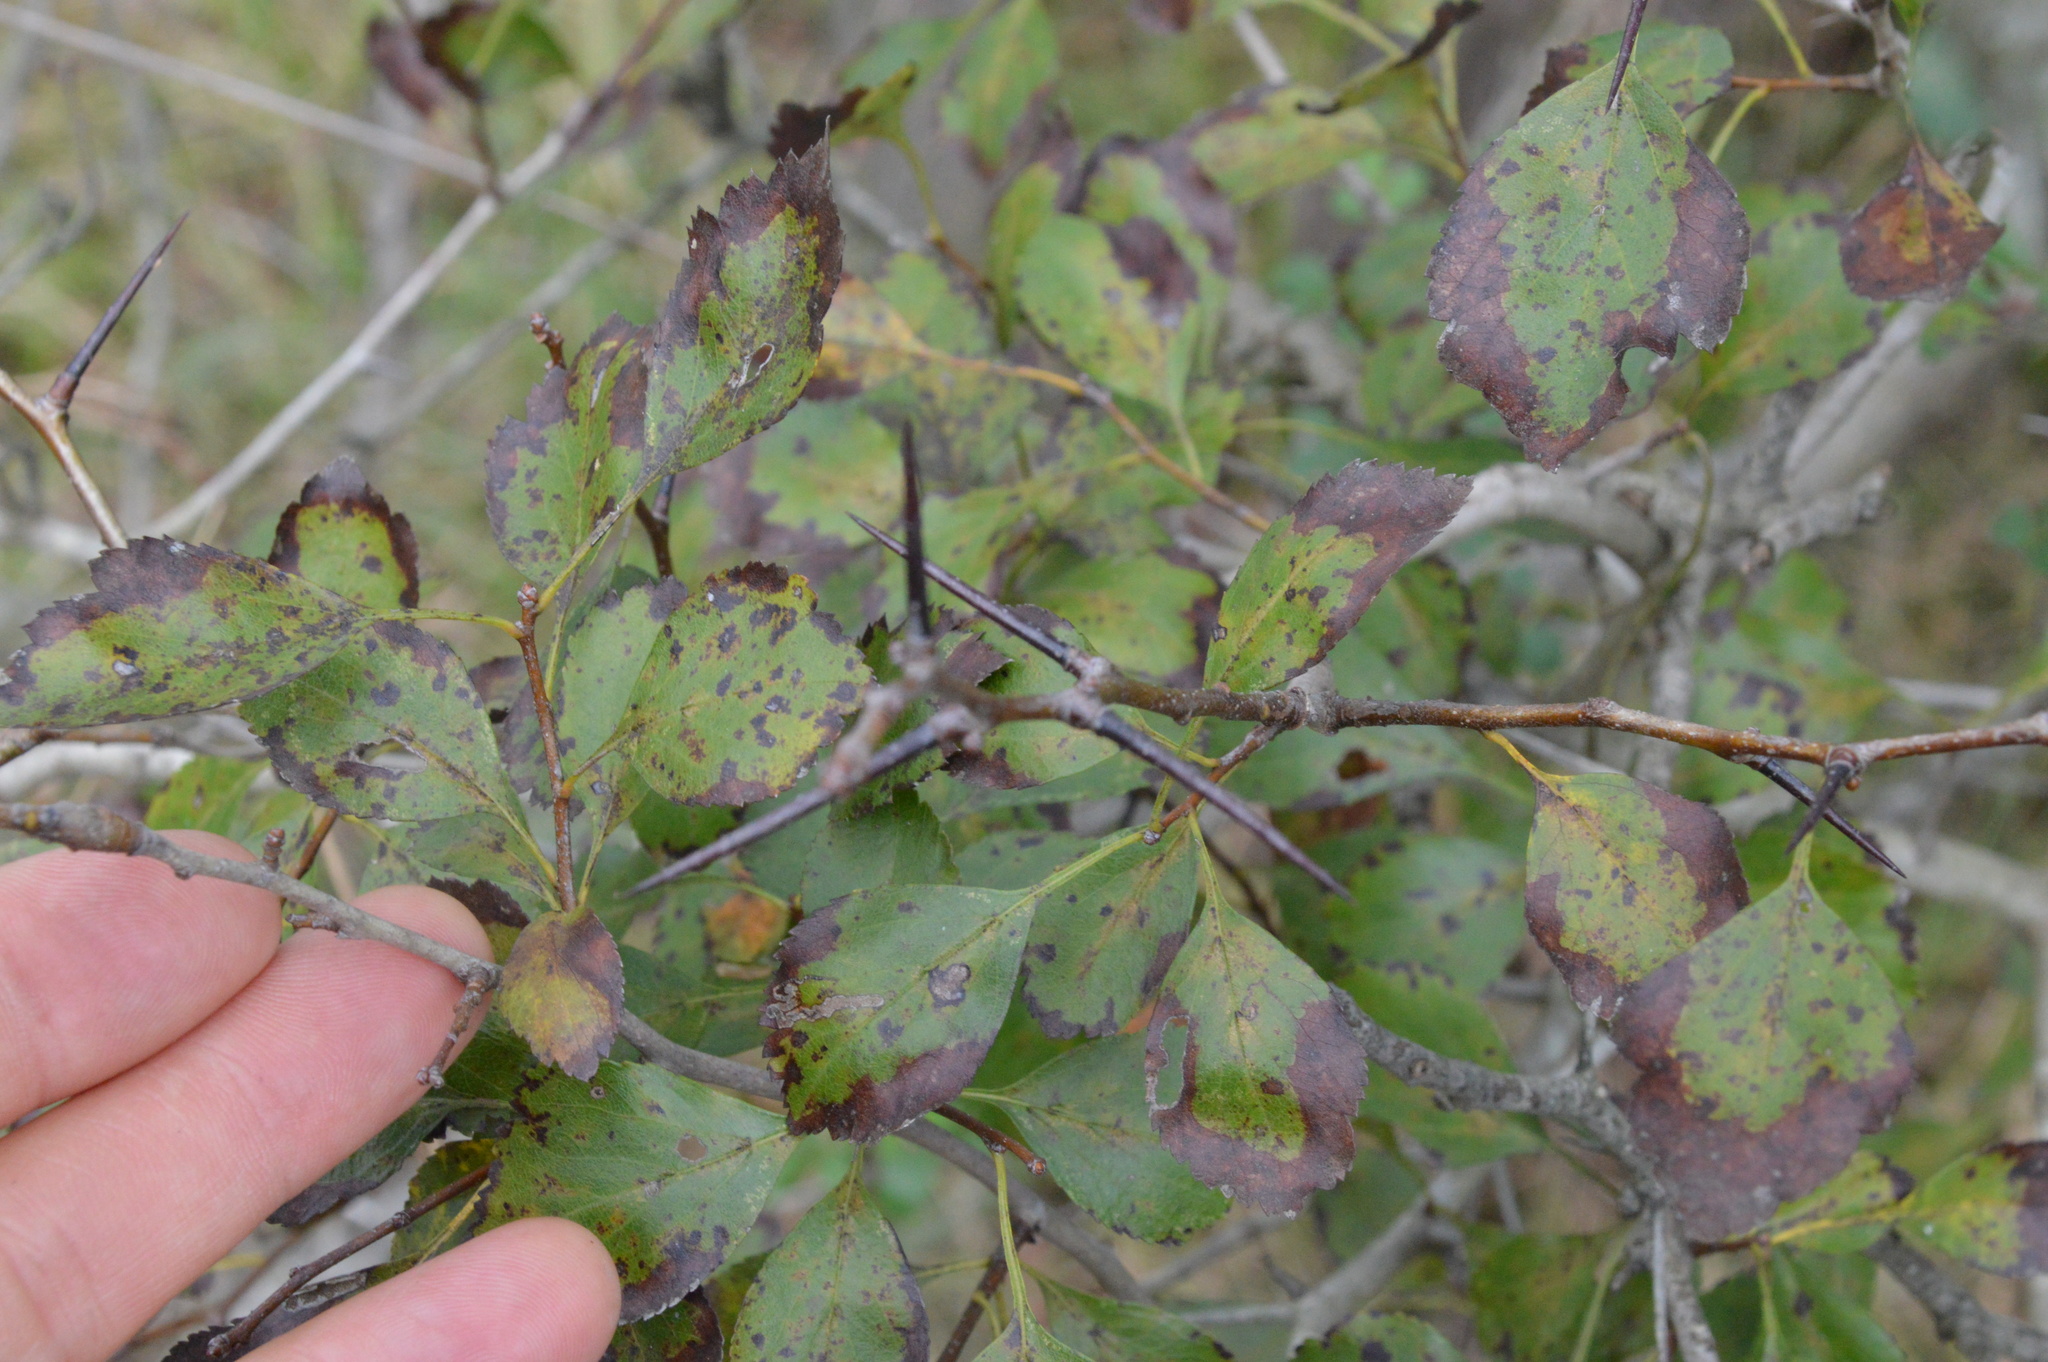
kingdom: Plantae
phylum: Tracheophyta
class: Magnoliopsida
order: Rosales
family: Rosaceae
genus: Crataegus
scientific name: Crataegus viridis
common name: Southernthorn
